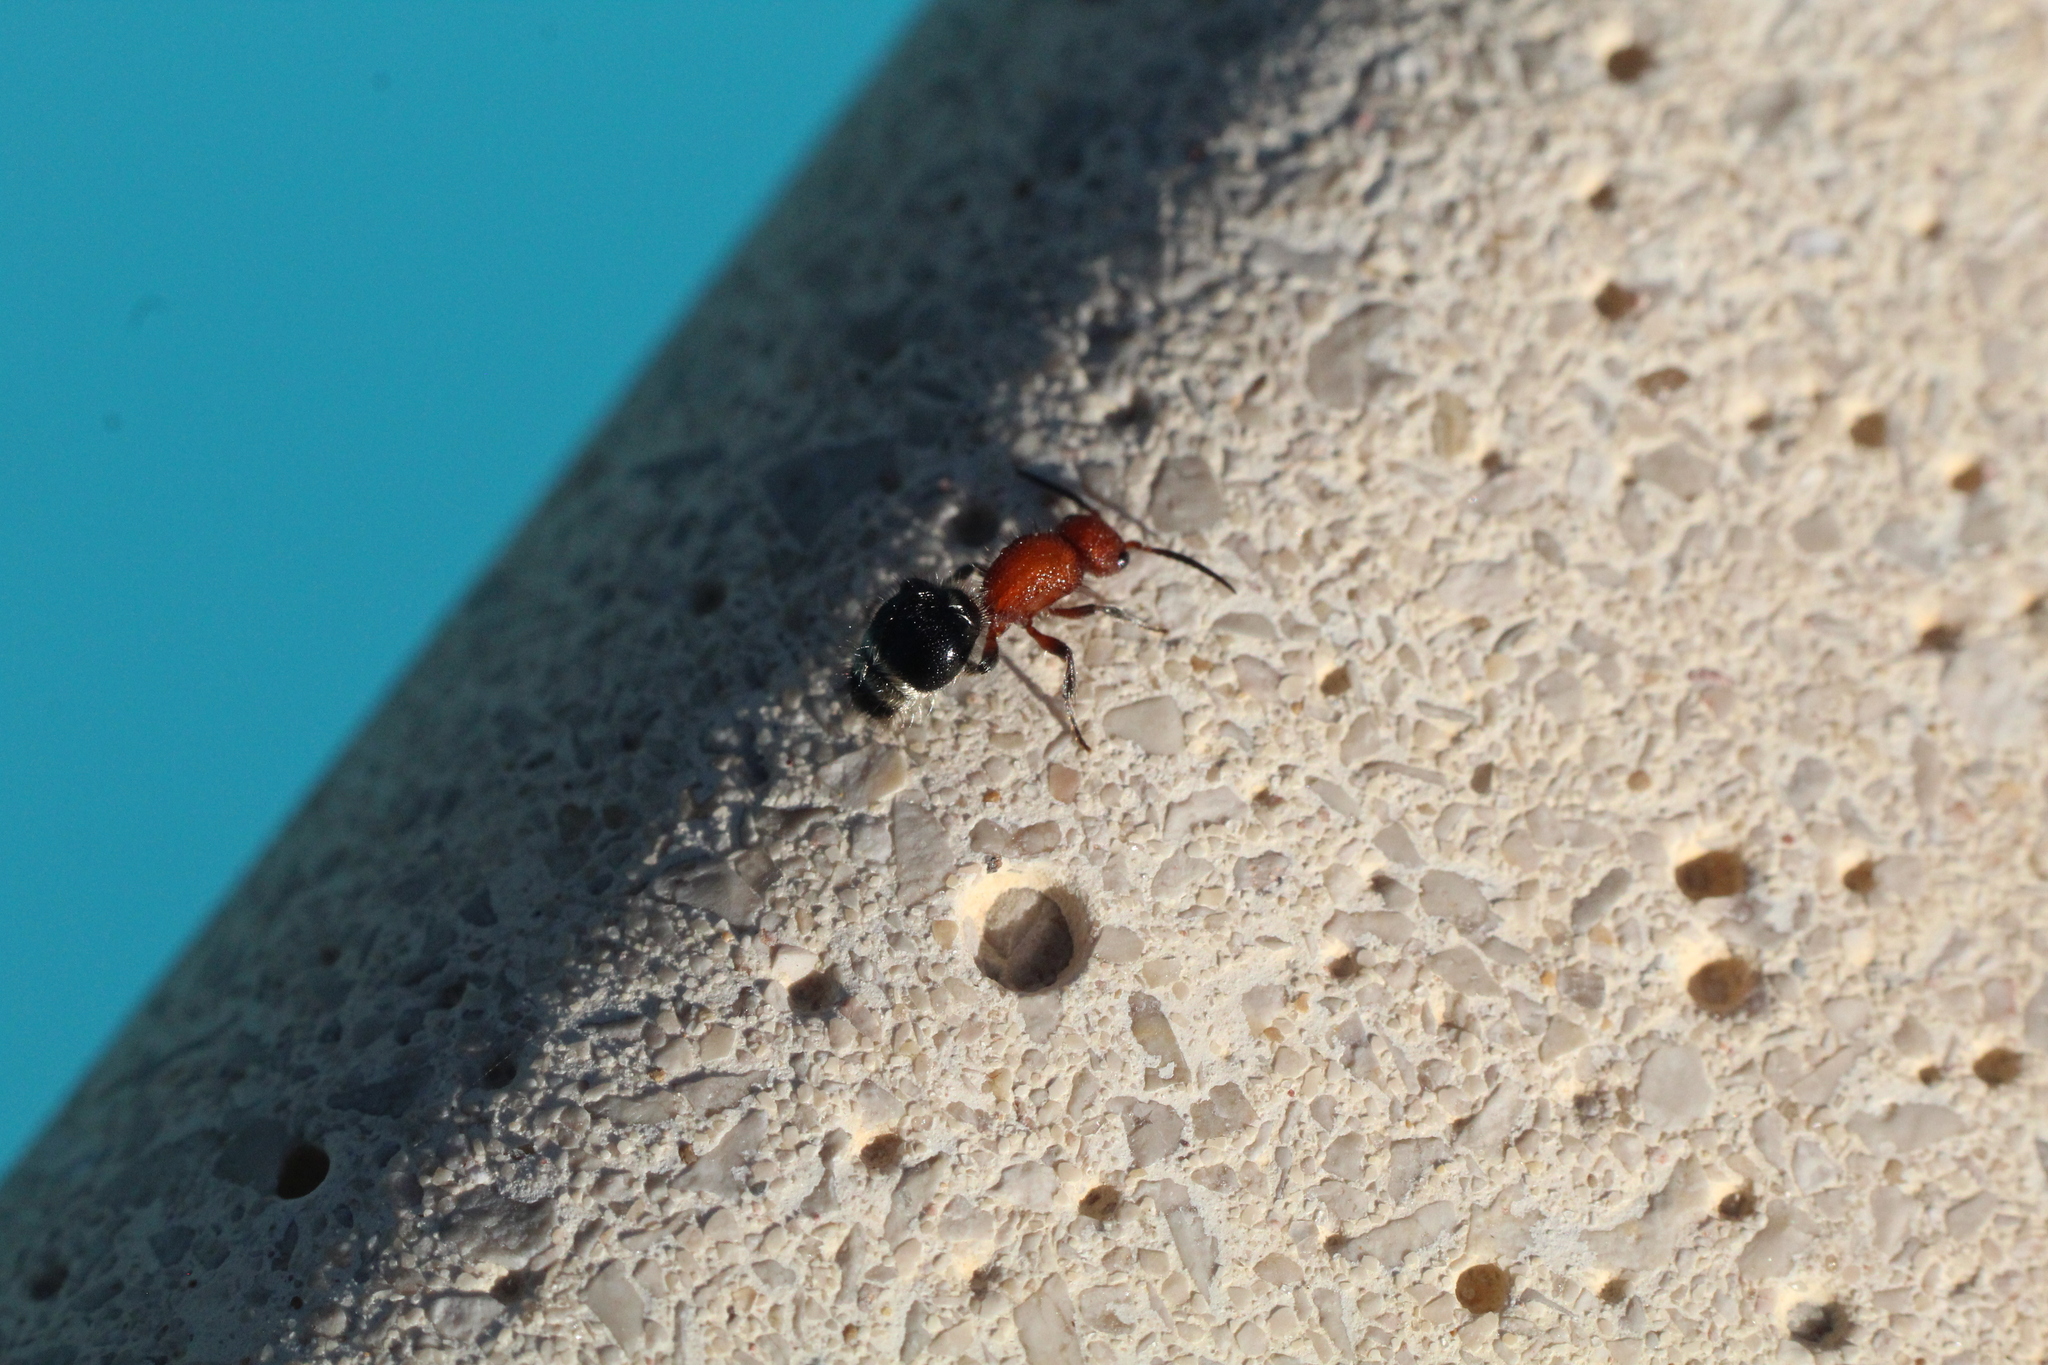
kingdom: Animalia
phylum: Arthropoda
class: Insecta
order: Hymenoptera
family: Mutillidae
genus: Cystomutilla
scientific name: Cystomutilla ruficeps
